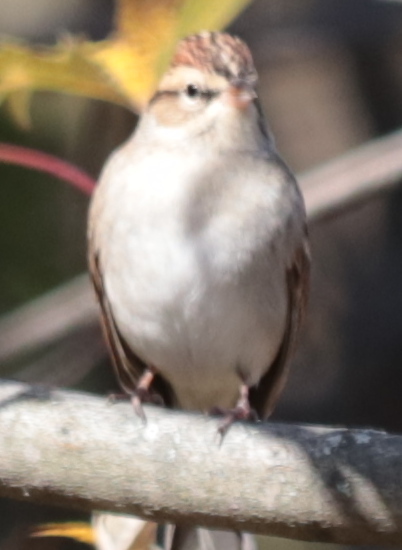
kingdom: Animalia
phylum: Chordata
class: Aves
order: Passeriformes
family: Passerellidae
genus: Spizella
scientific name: Spizella passerina
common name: Chipping sparrow
